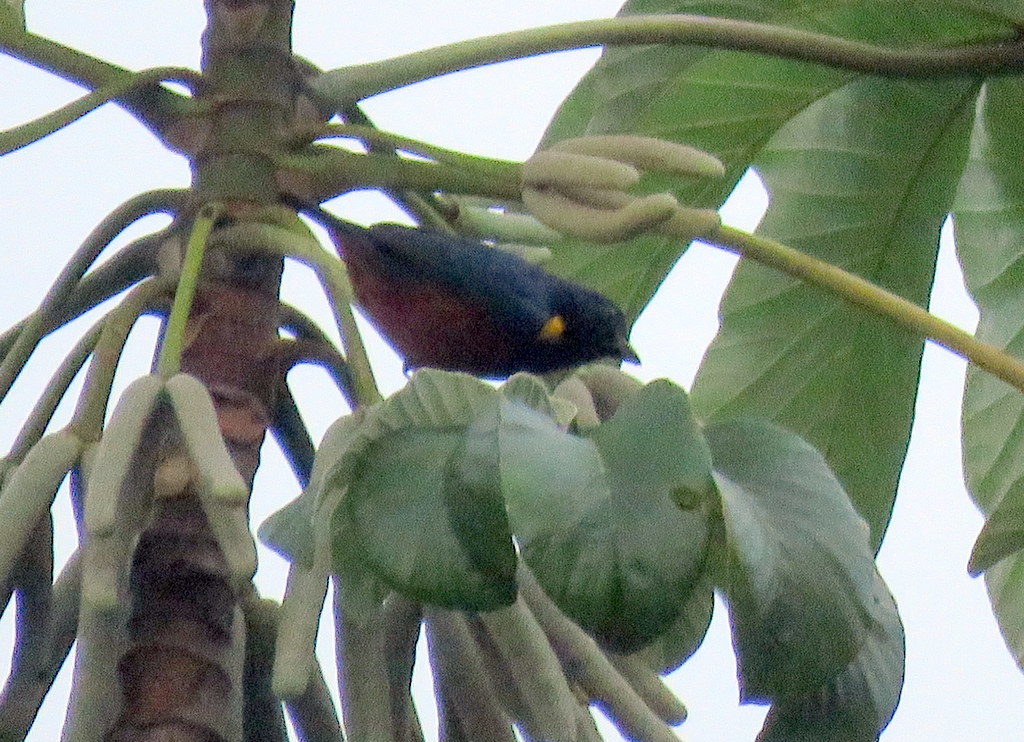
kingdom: Animalia
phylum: Chordata
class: Aves
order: Passeriformes
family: Fringillidae
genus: Euphonia
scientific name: Euphonia pectoralis
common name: Chestnut-bellied euphonia
